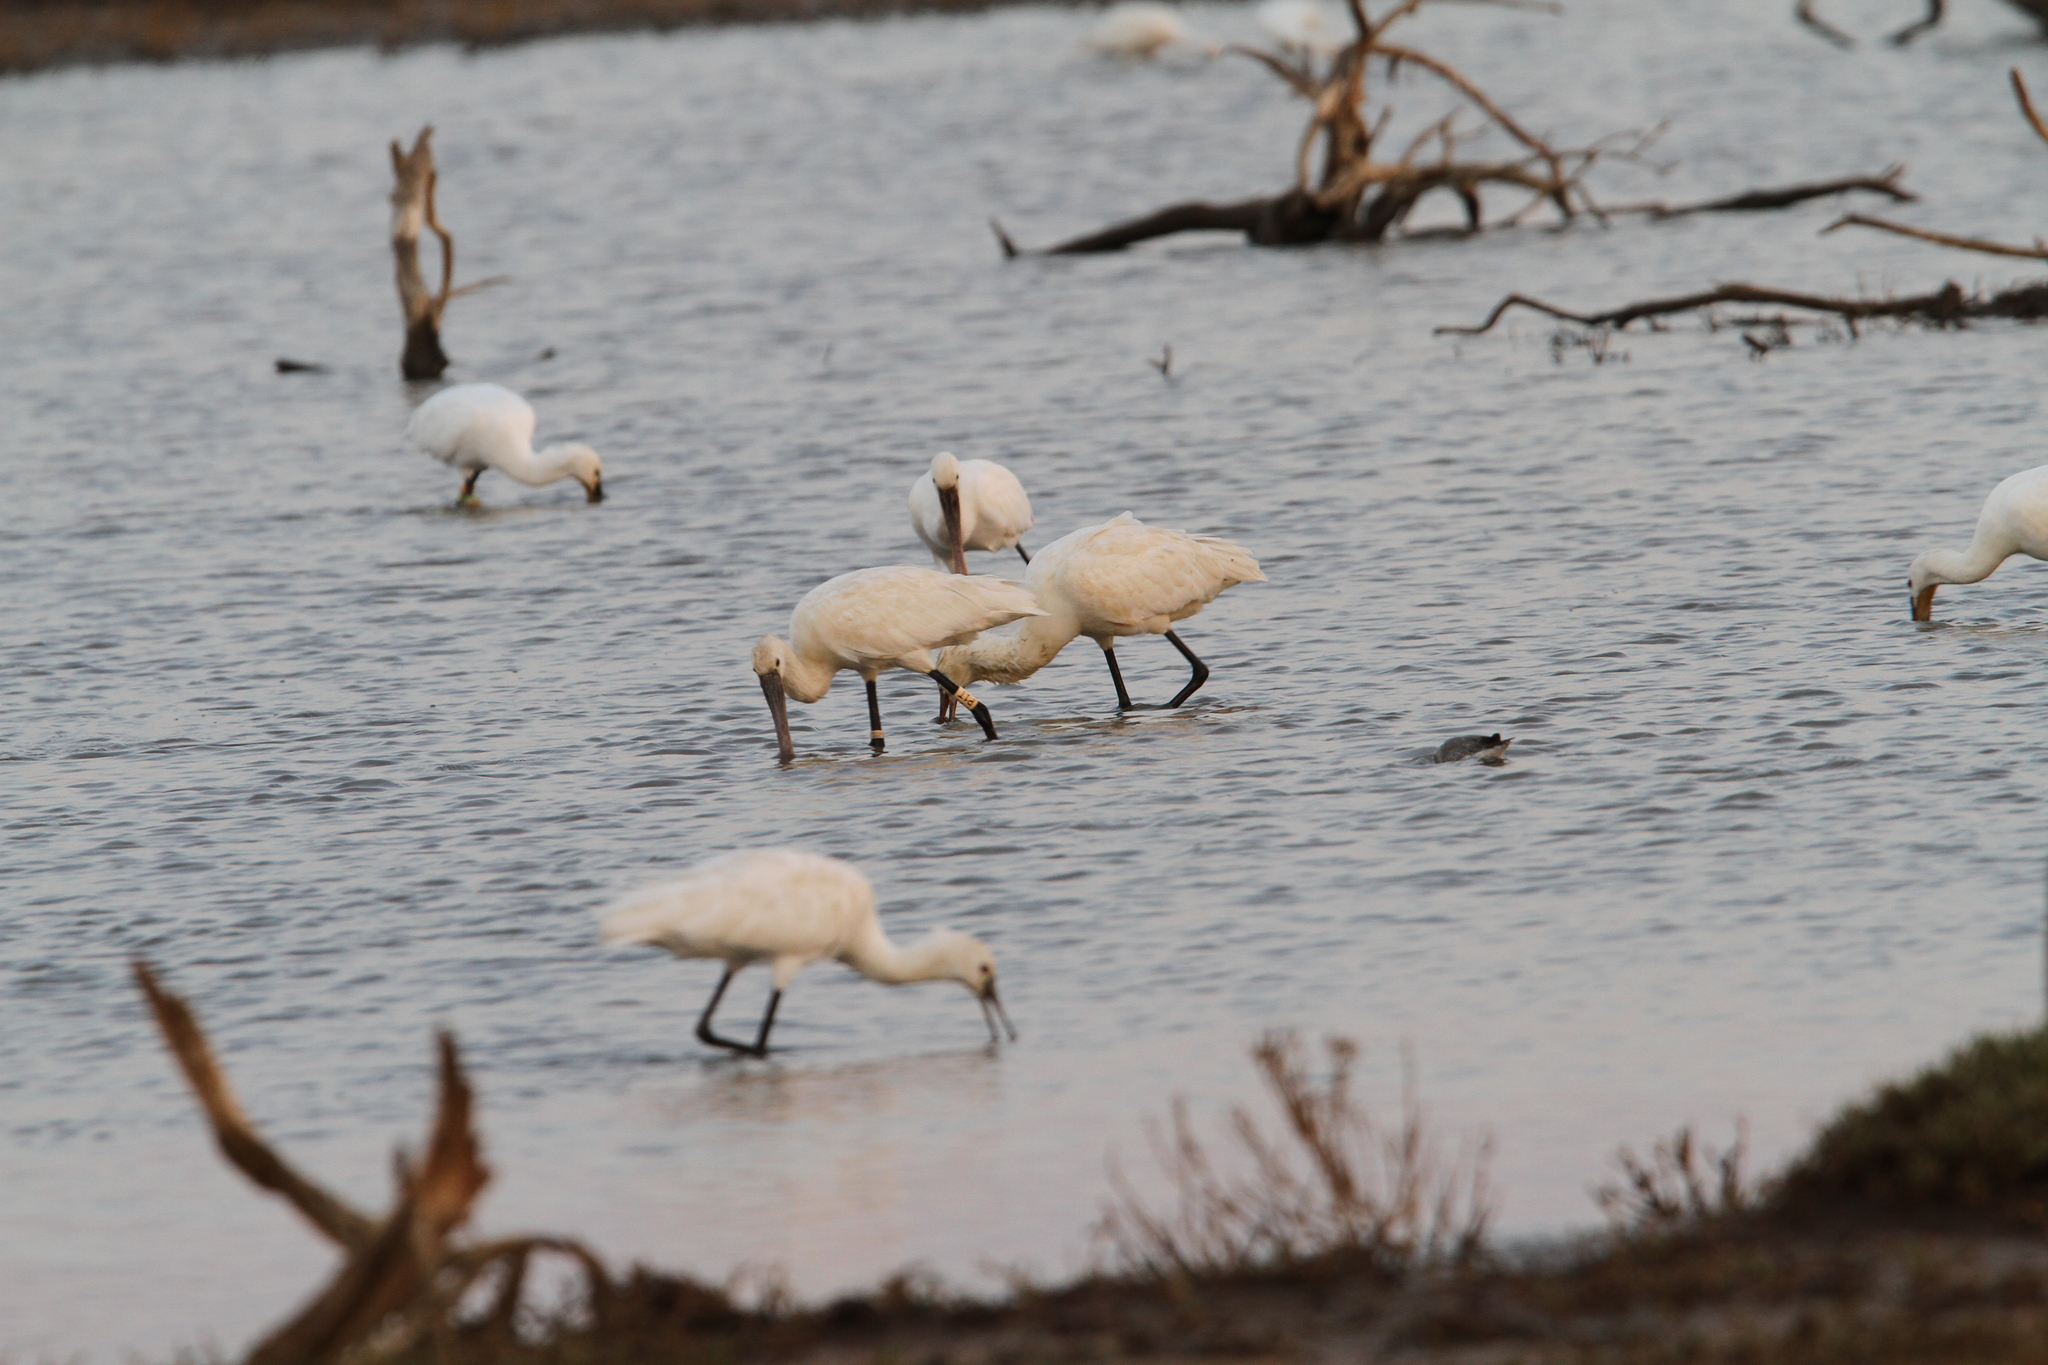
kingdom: Animalia
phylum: Chordata
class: Aves
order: Pelecaniformes
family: Threskiornithidae
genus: Platalea
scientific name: Platalea leucorodia
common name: Eurasian spoonbill
